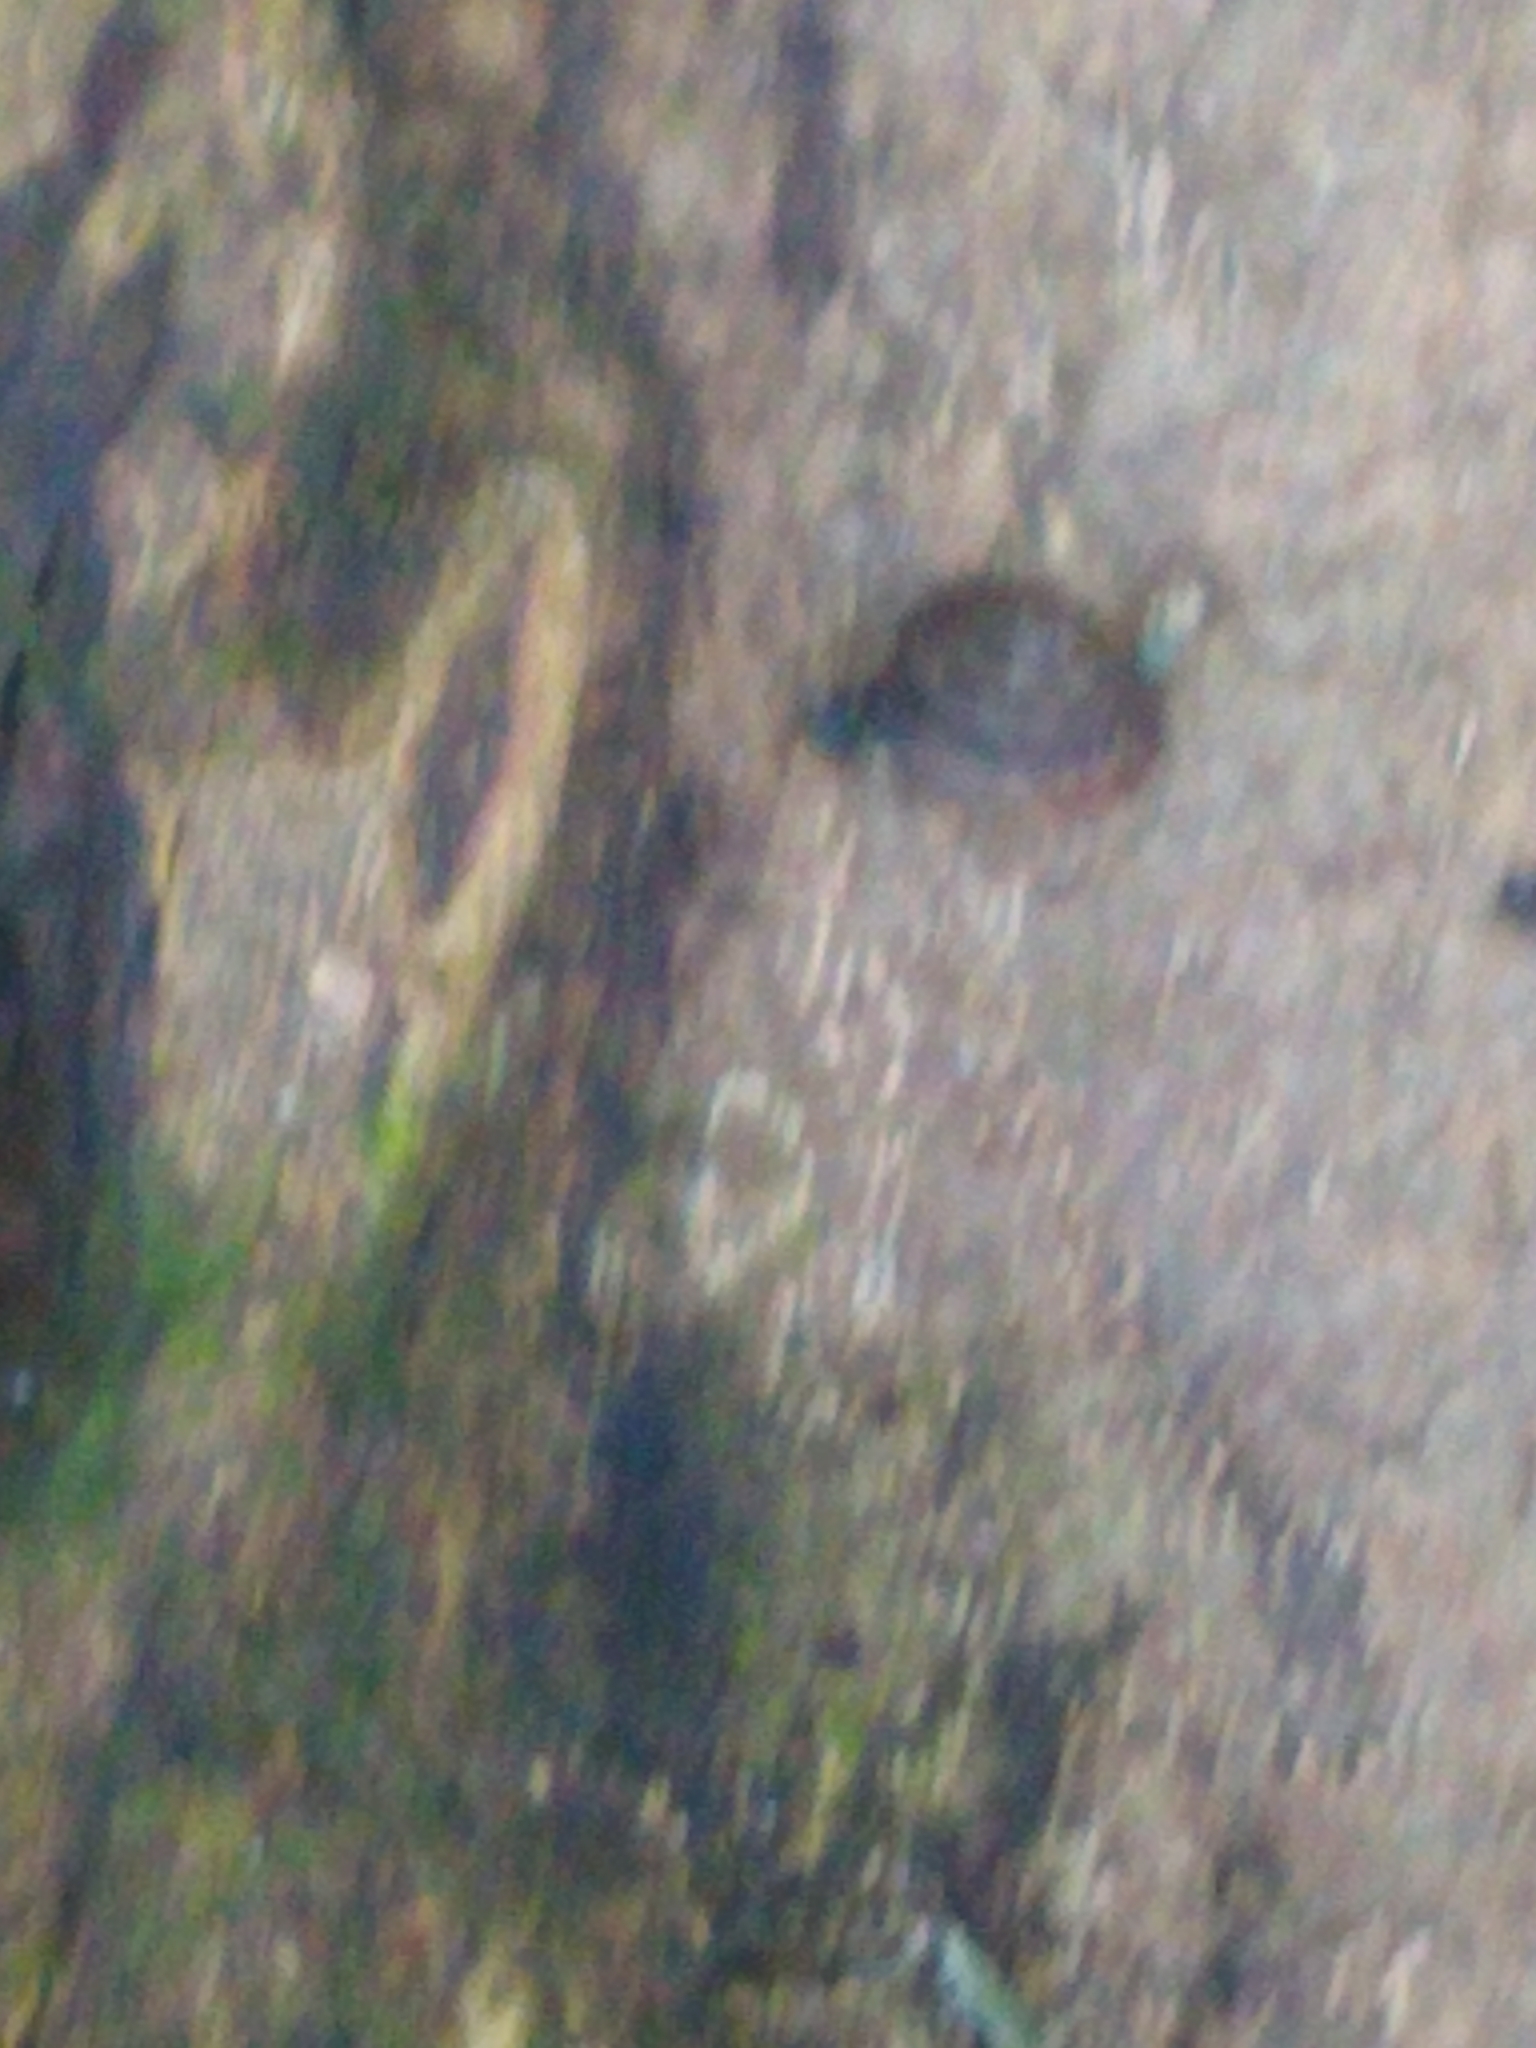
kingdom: Animalia
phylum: Mollusca
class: Gastropoda
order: Stylommatophora
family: Discidae
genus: Discus
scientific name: Discus rotundatus
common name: Rounded snail
